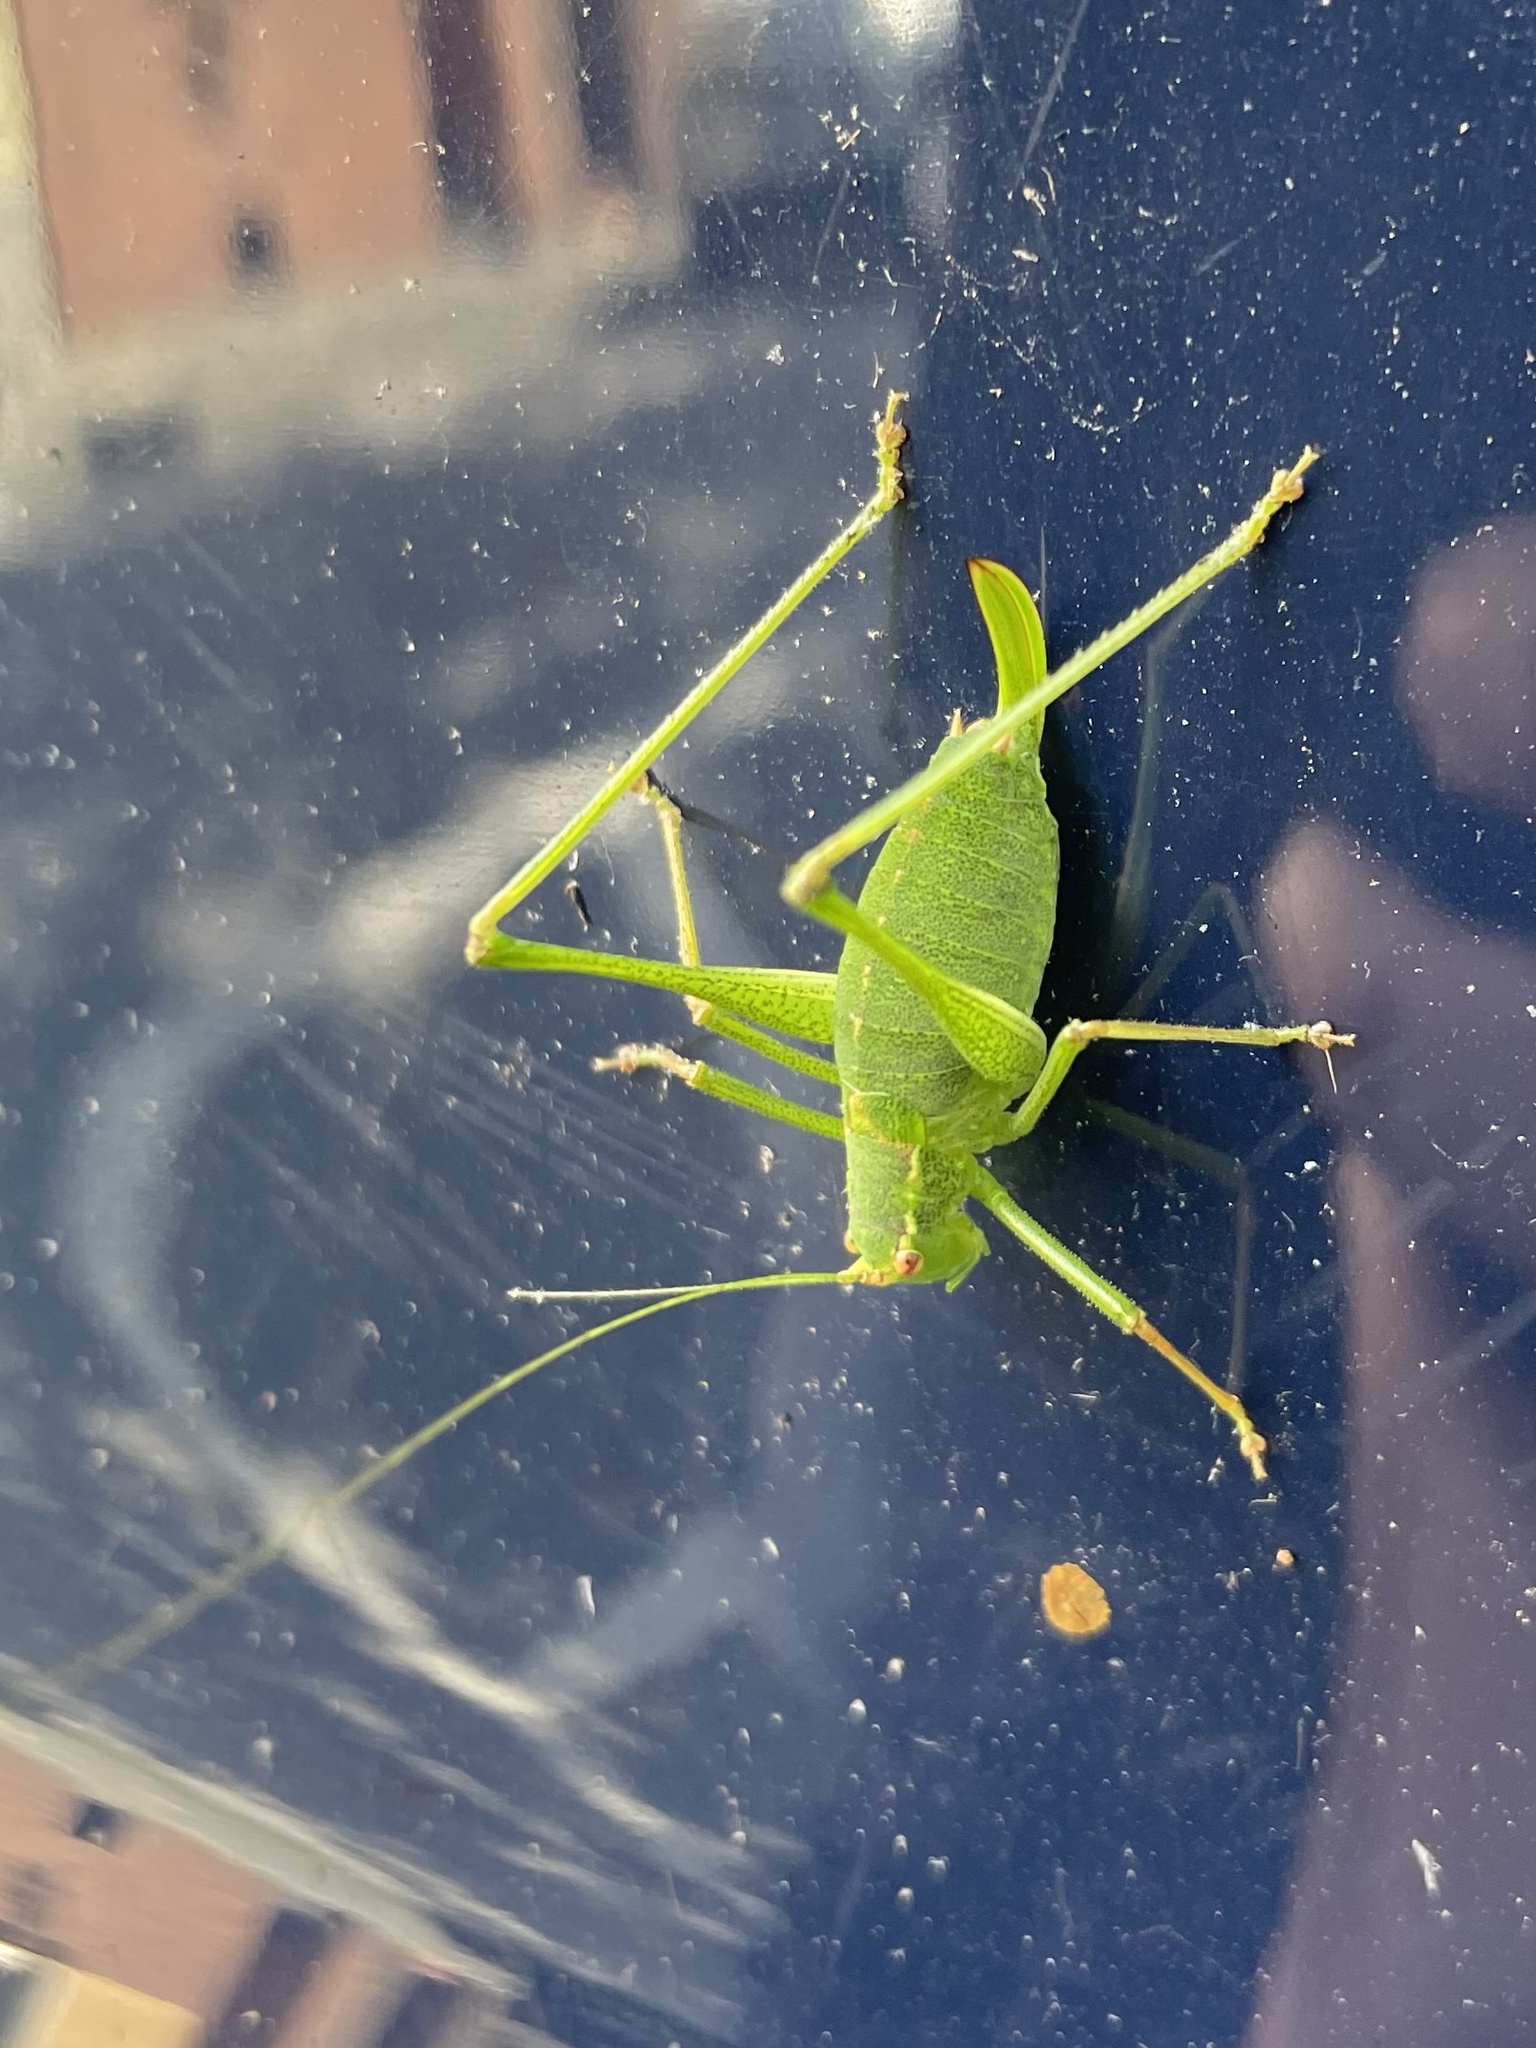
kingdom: Animalia
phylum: Arthropoda
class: Insecta
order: Orthoptera
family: Tettigoniidae
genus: Leptophyes
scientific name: Leptophyes punctatissima
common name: Speckled bush-cricket
